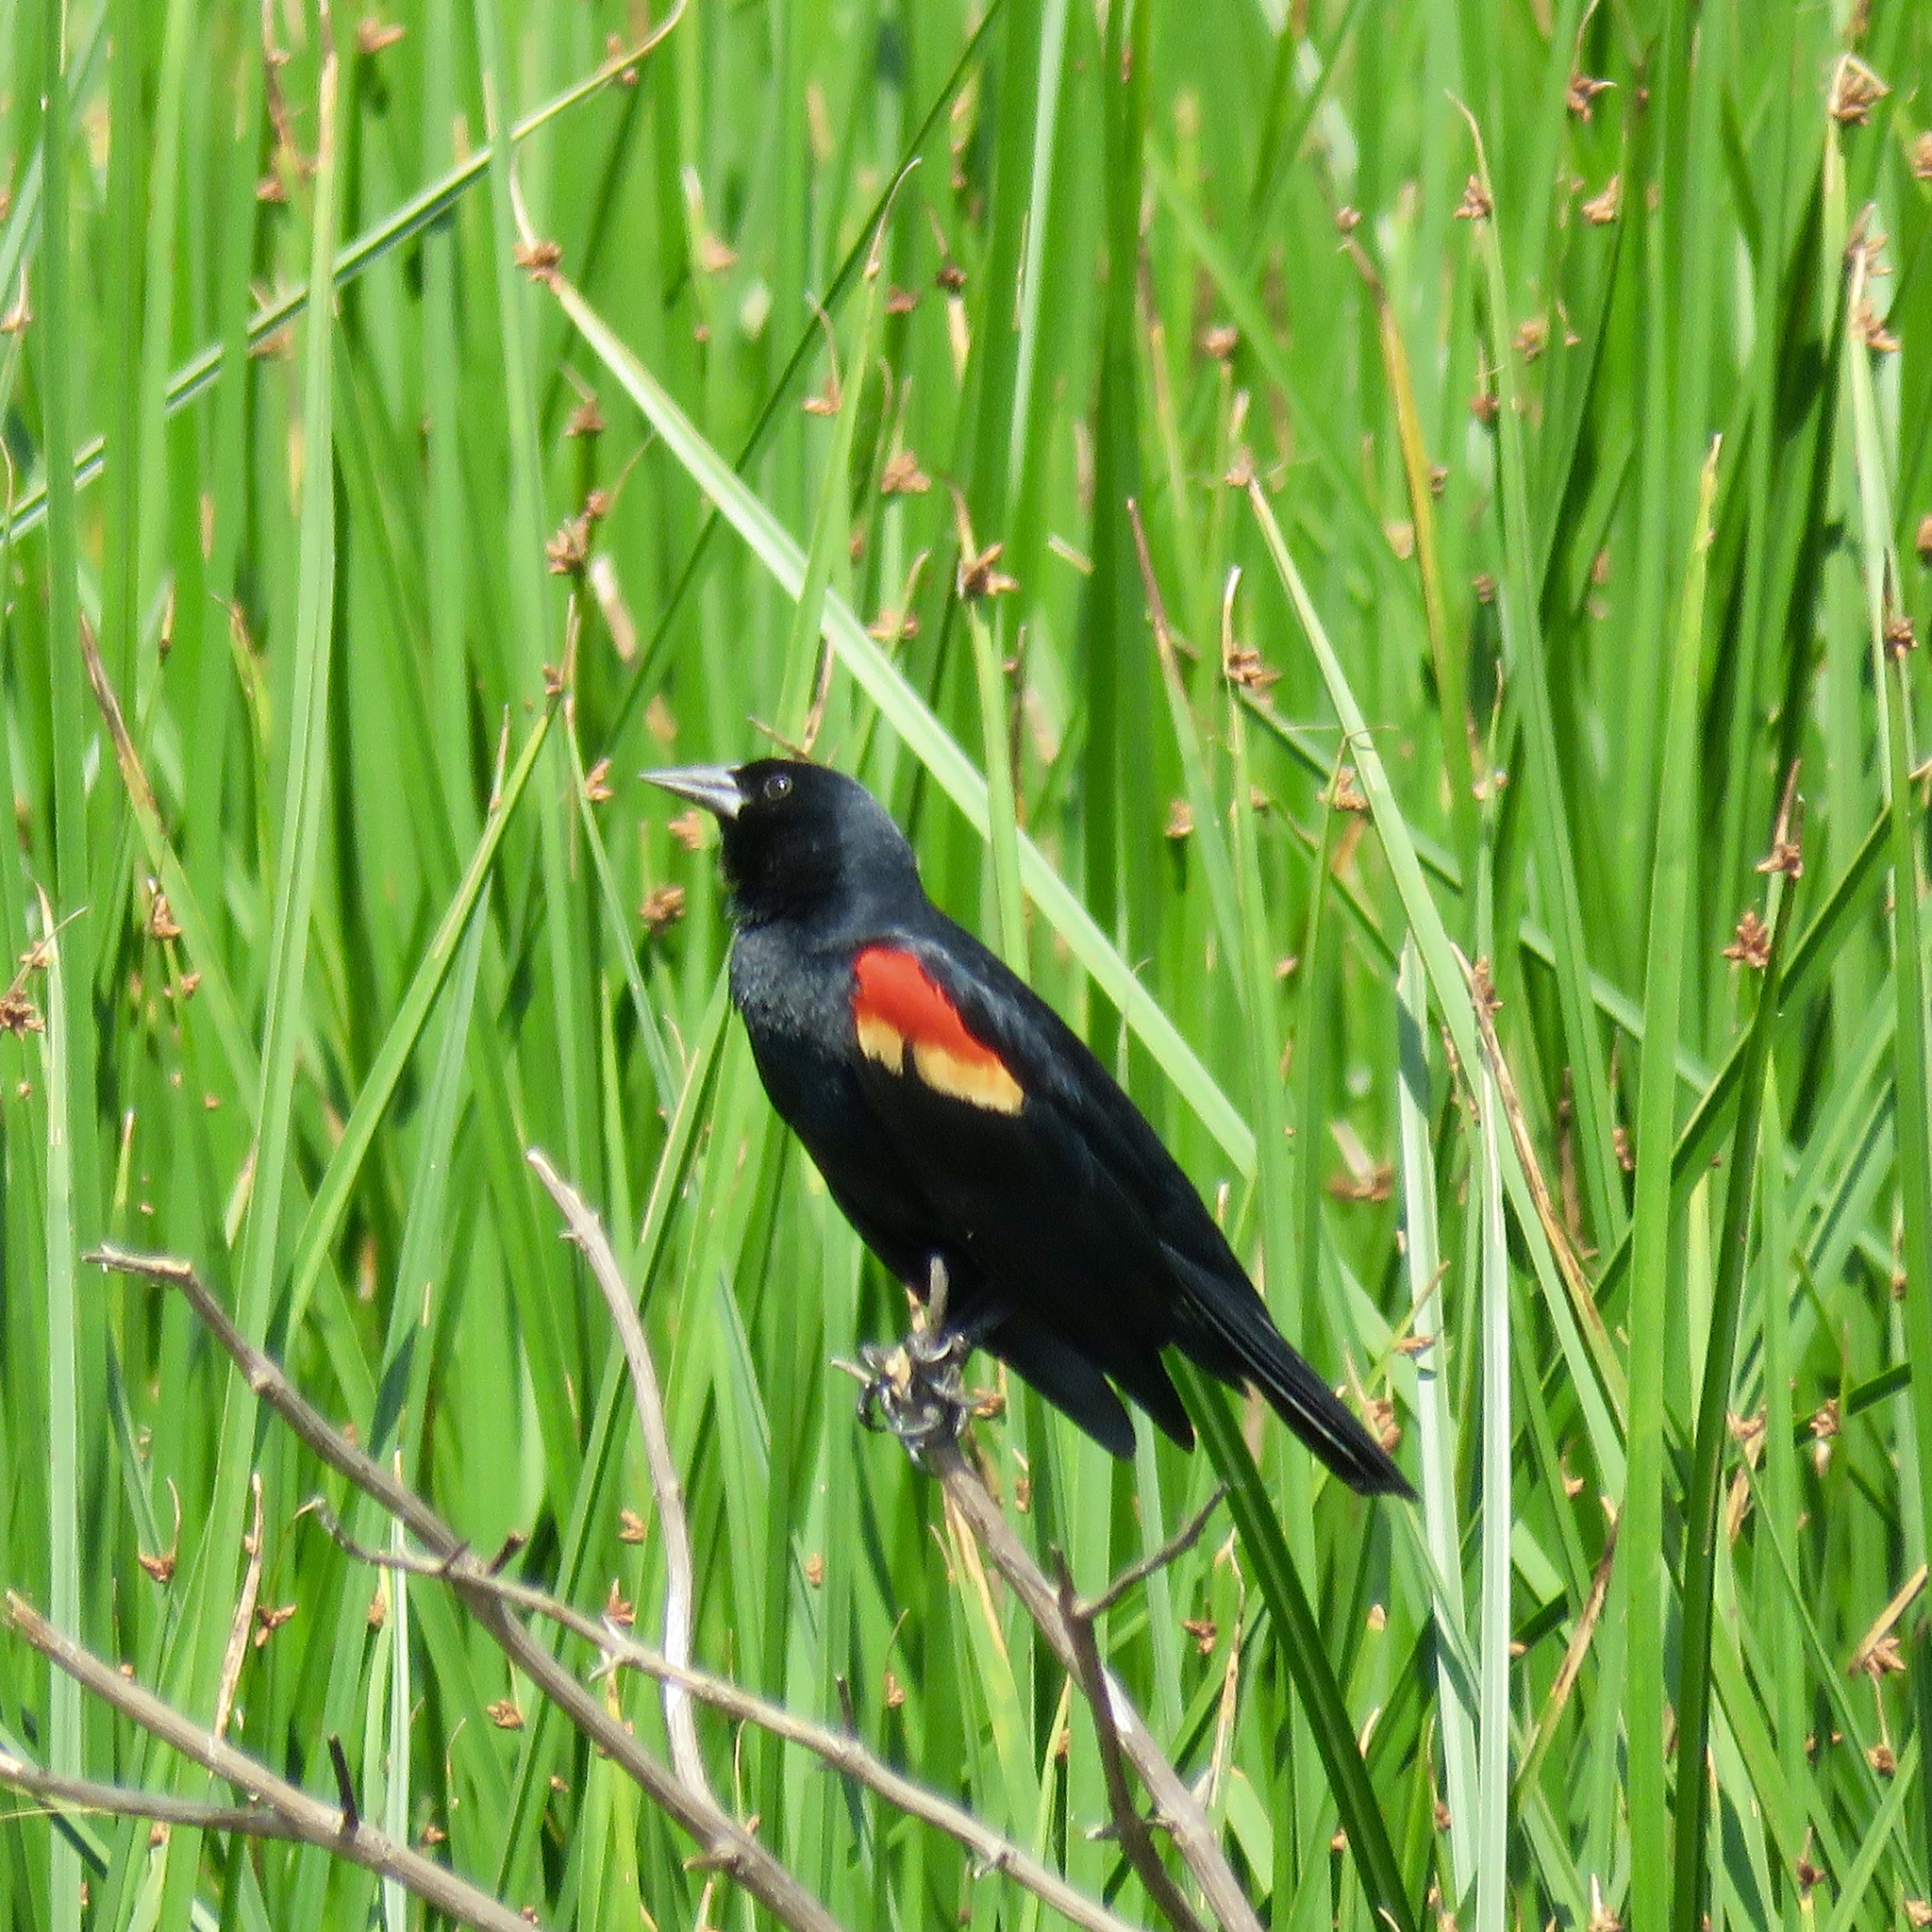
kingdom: Animalia
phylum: Chordata
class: Aves
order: Passeriformes
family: Icteridae
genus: Agelaius
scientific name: Agelaius phoeniceus
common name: Red-winged blackbird
